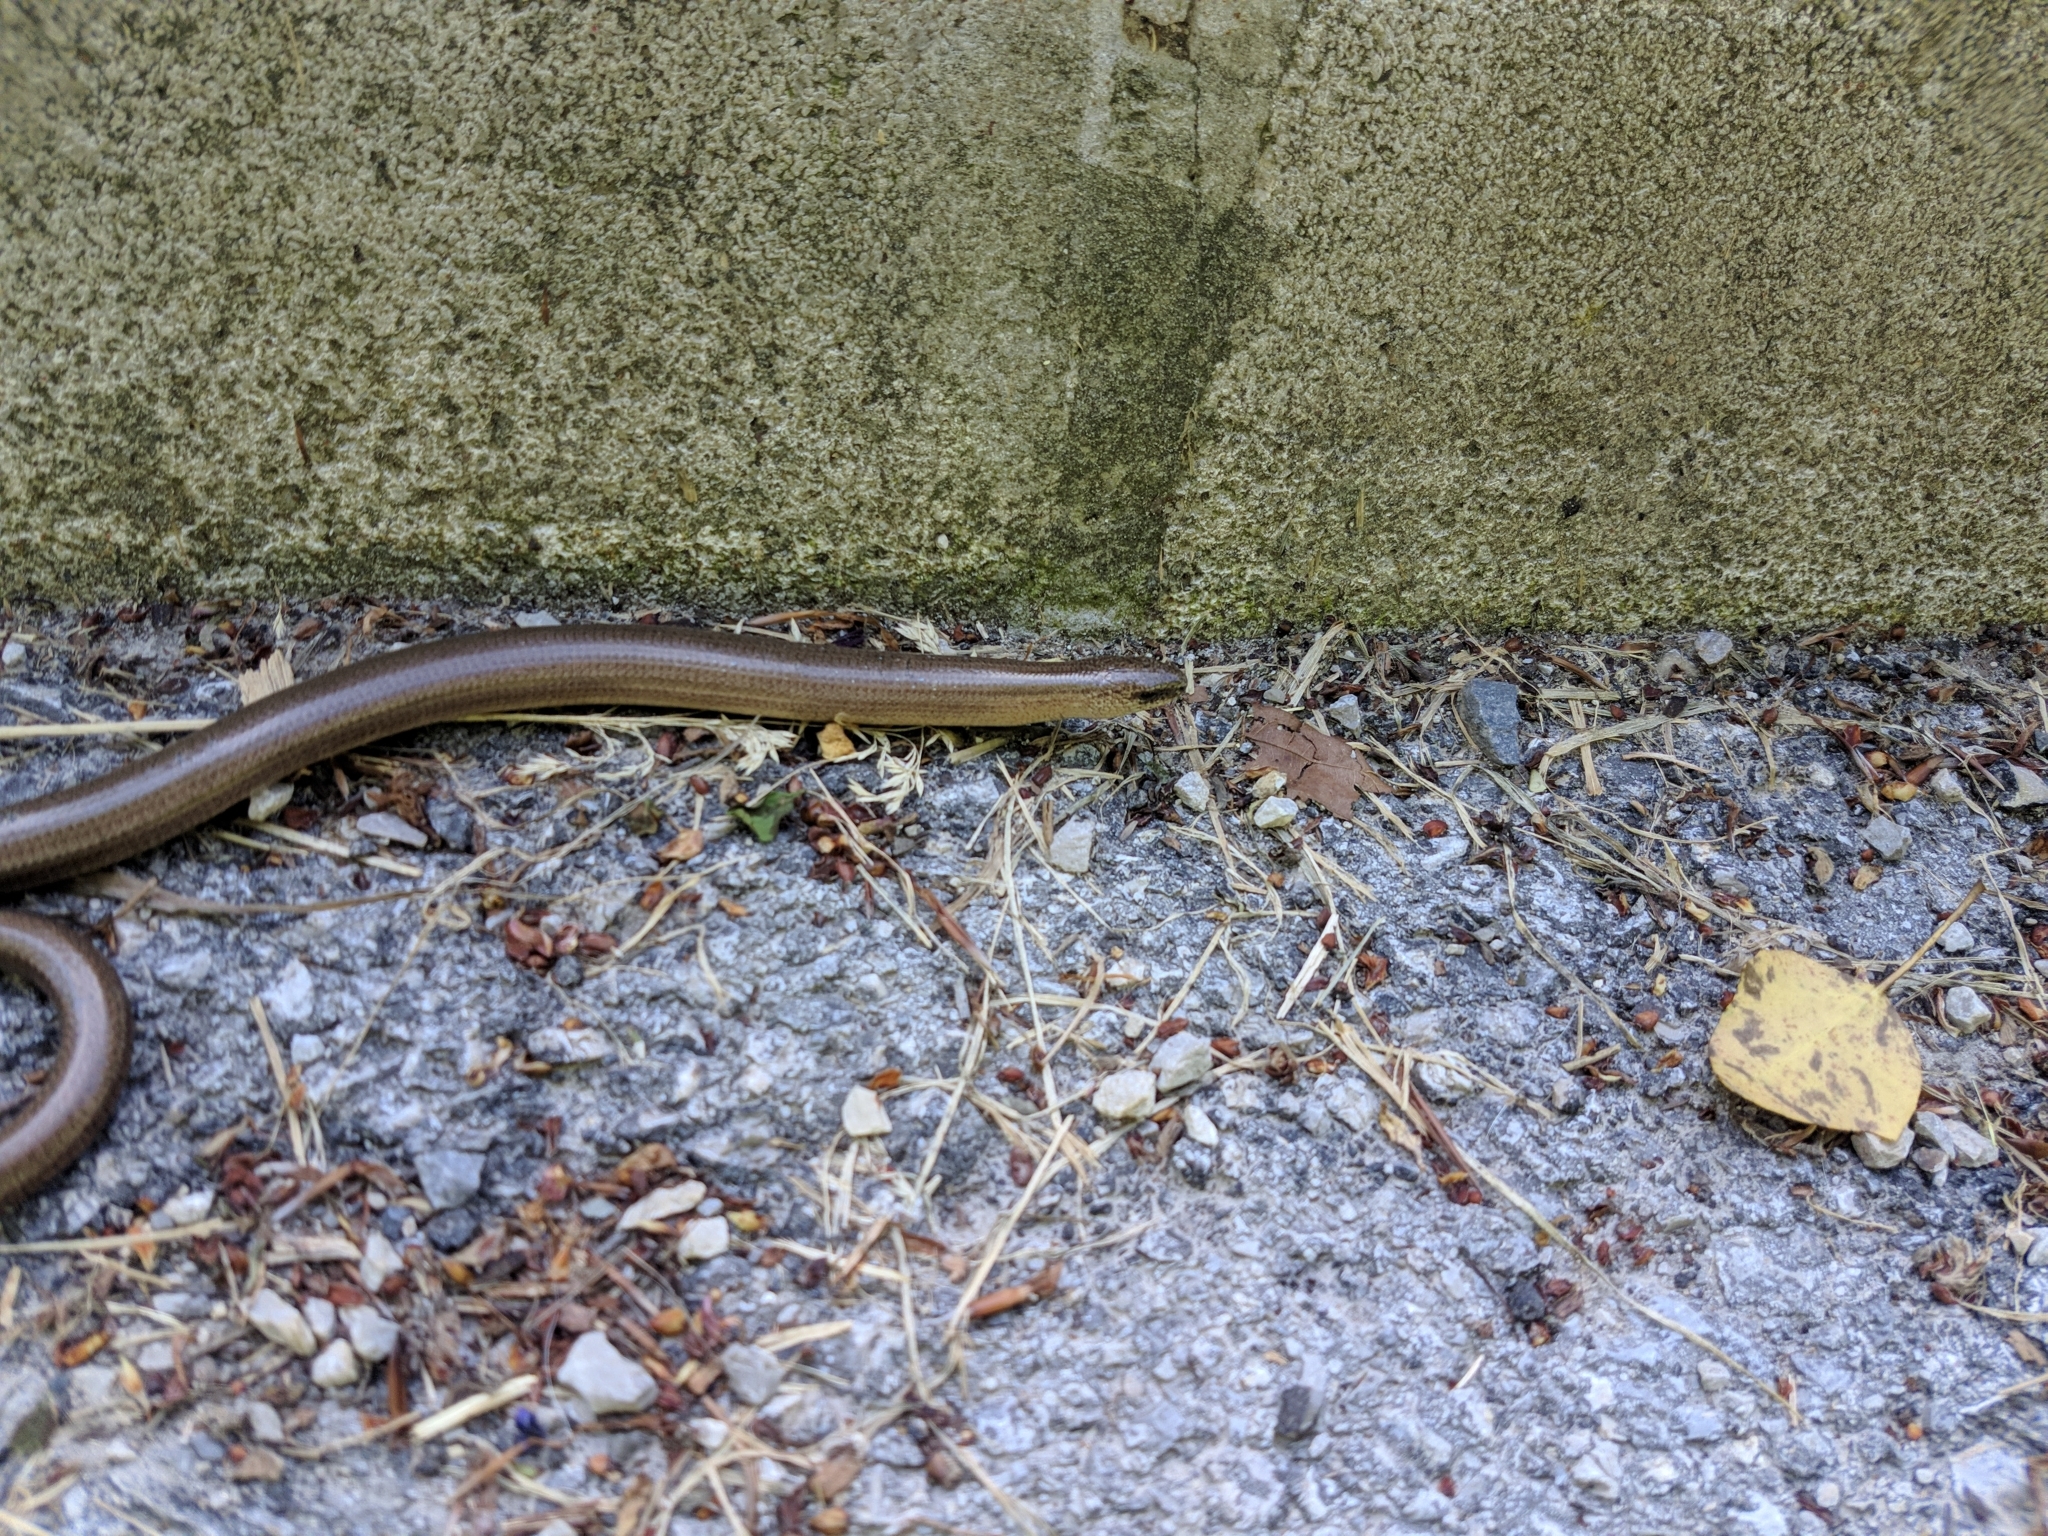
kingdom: Animalia
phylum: Chordata
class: Squamata
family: Anguidae
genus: Anguis
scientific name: Anguis fragilis
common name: Slow worm
